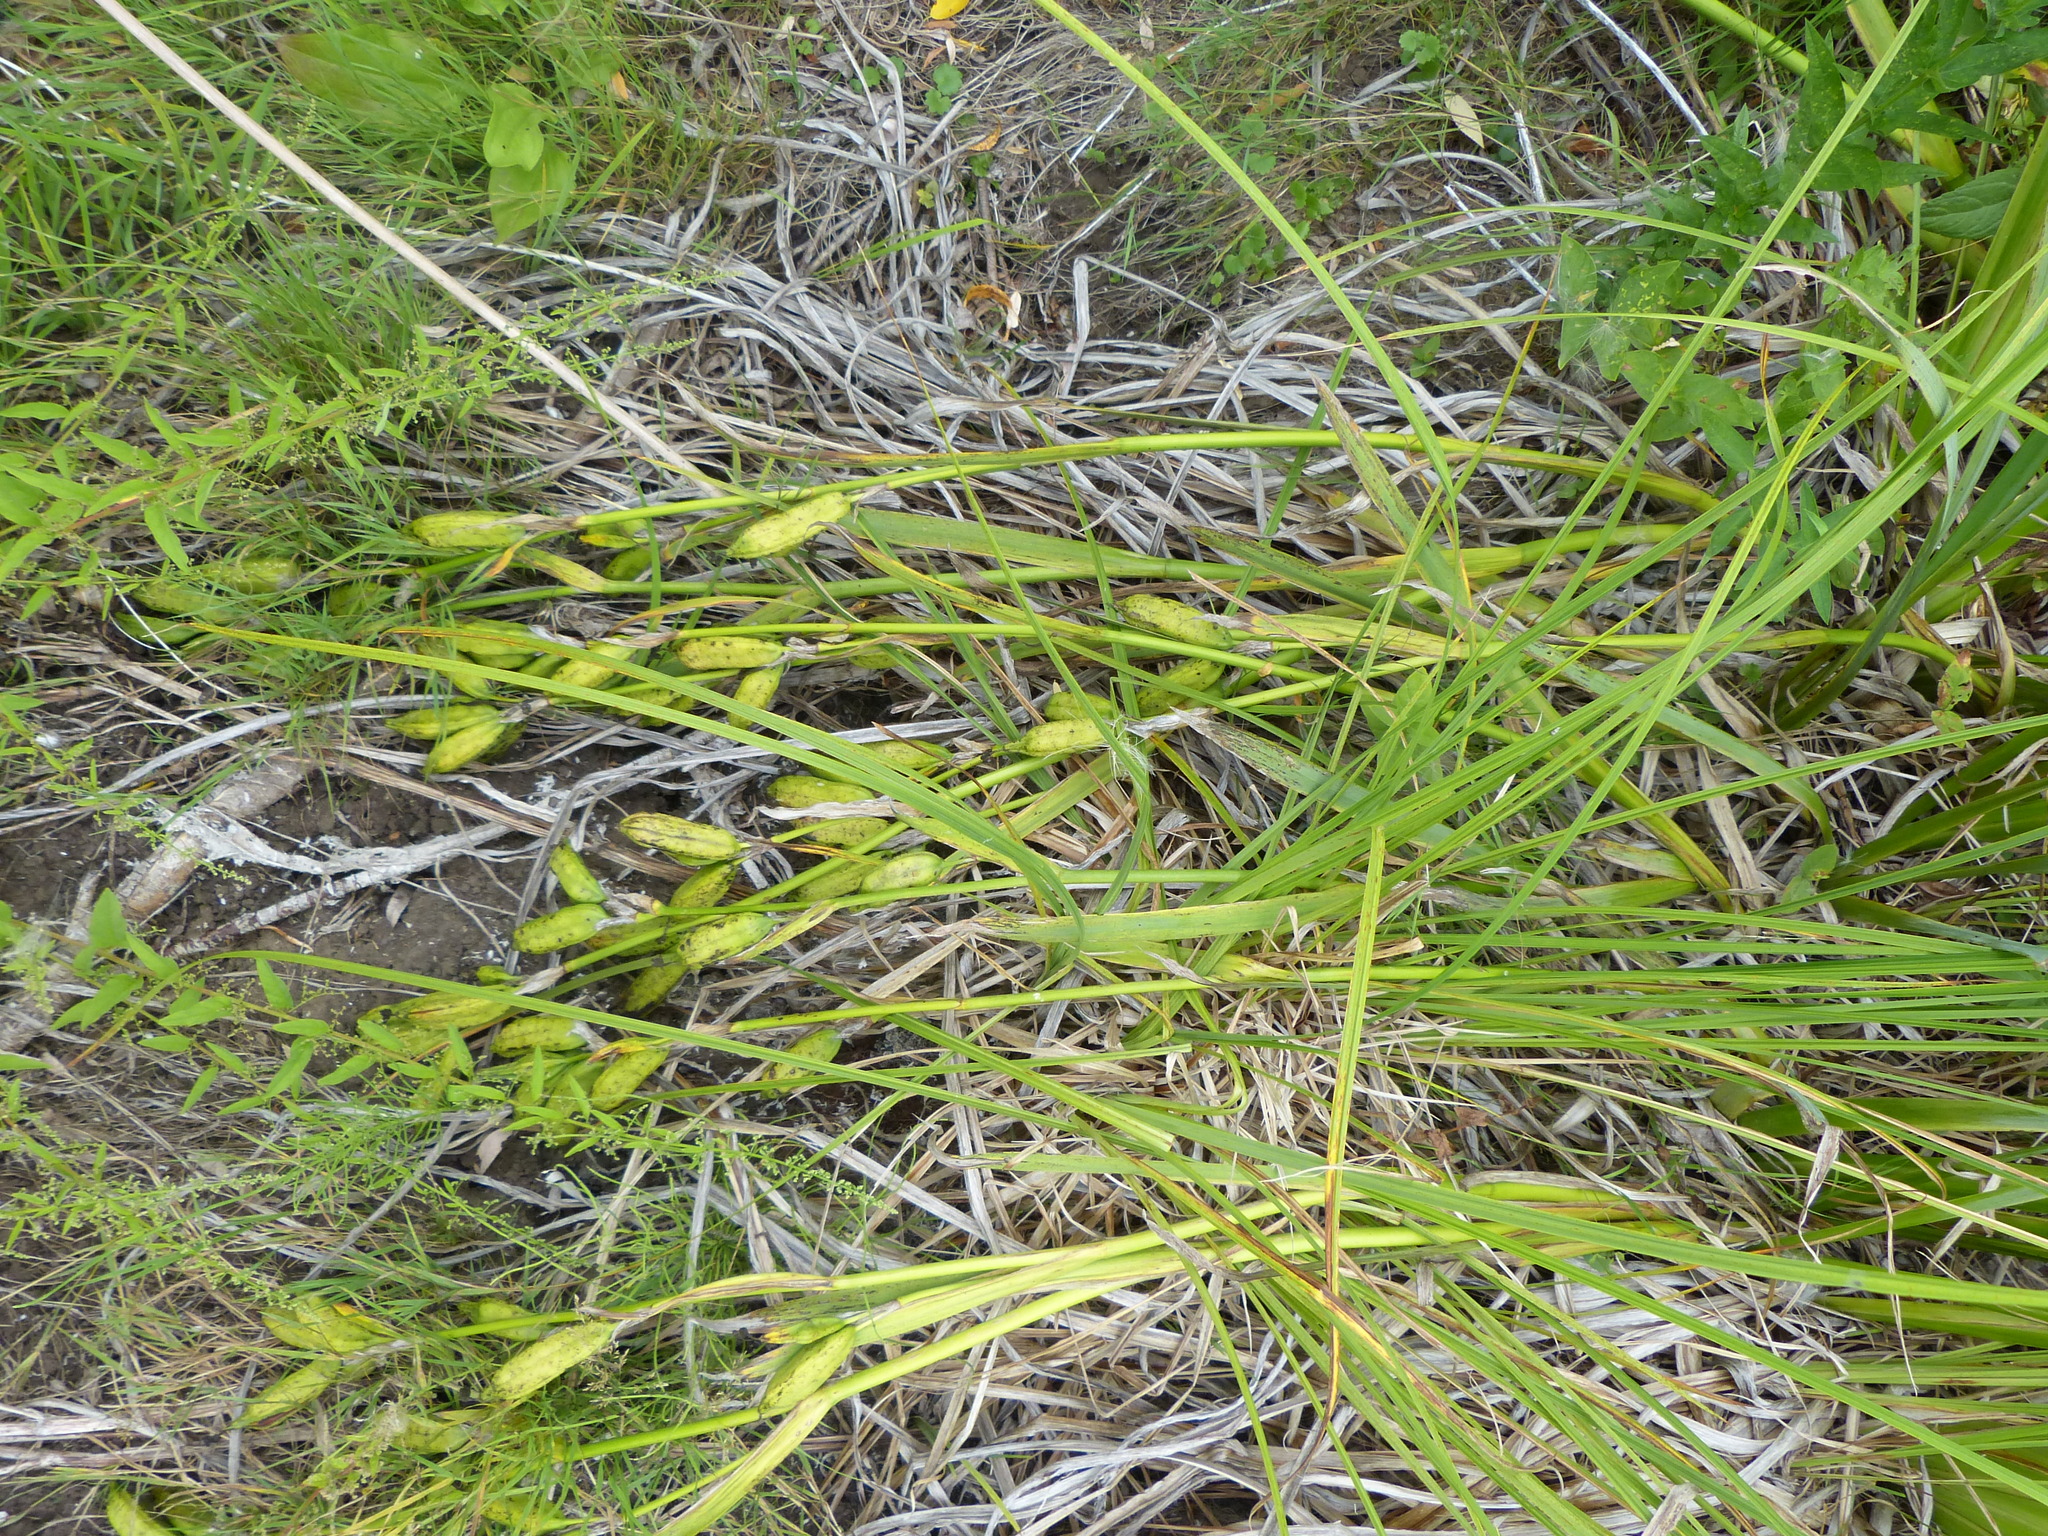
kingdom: Plantae
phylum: Tracheophyta
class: Liliopsida
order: Asparagales
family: Iridaceae
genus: Iris
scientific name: Iris pseudacorus
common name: Yellow flag
